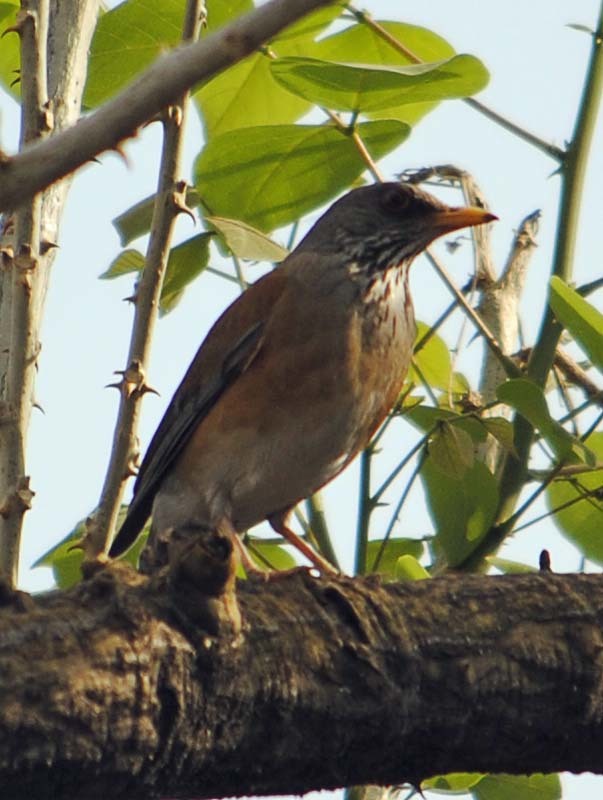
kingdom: Animalia
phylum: Chordata
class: Aves
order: Passeriformes
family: Turdidae
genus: Turdus
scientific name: Turdus rufopalliatus
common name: Rufous-backed robin
